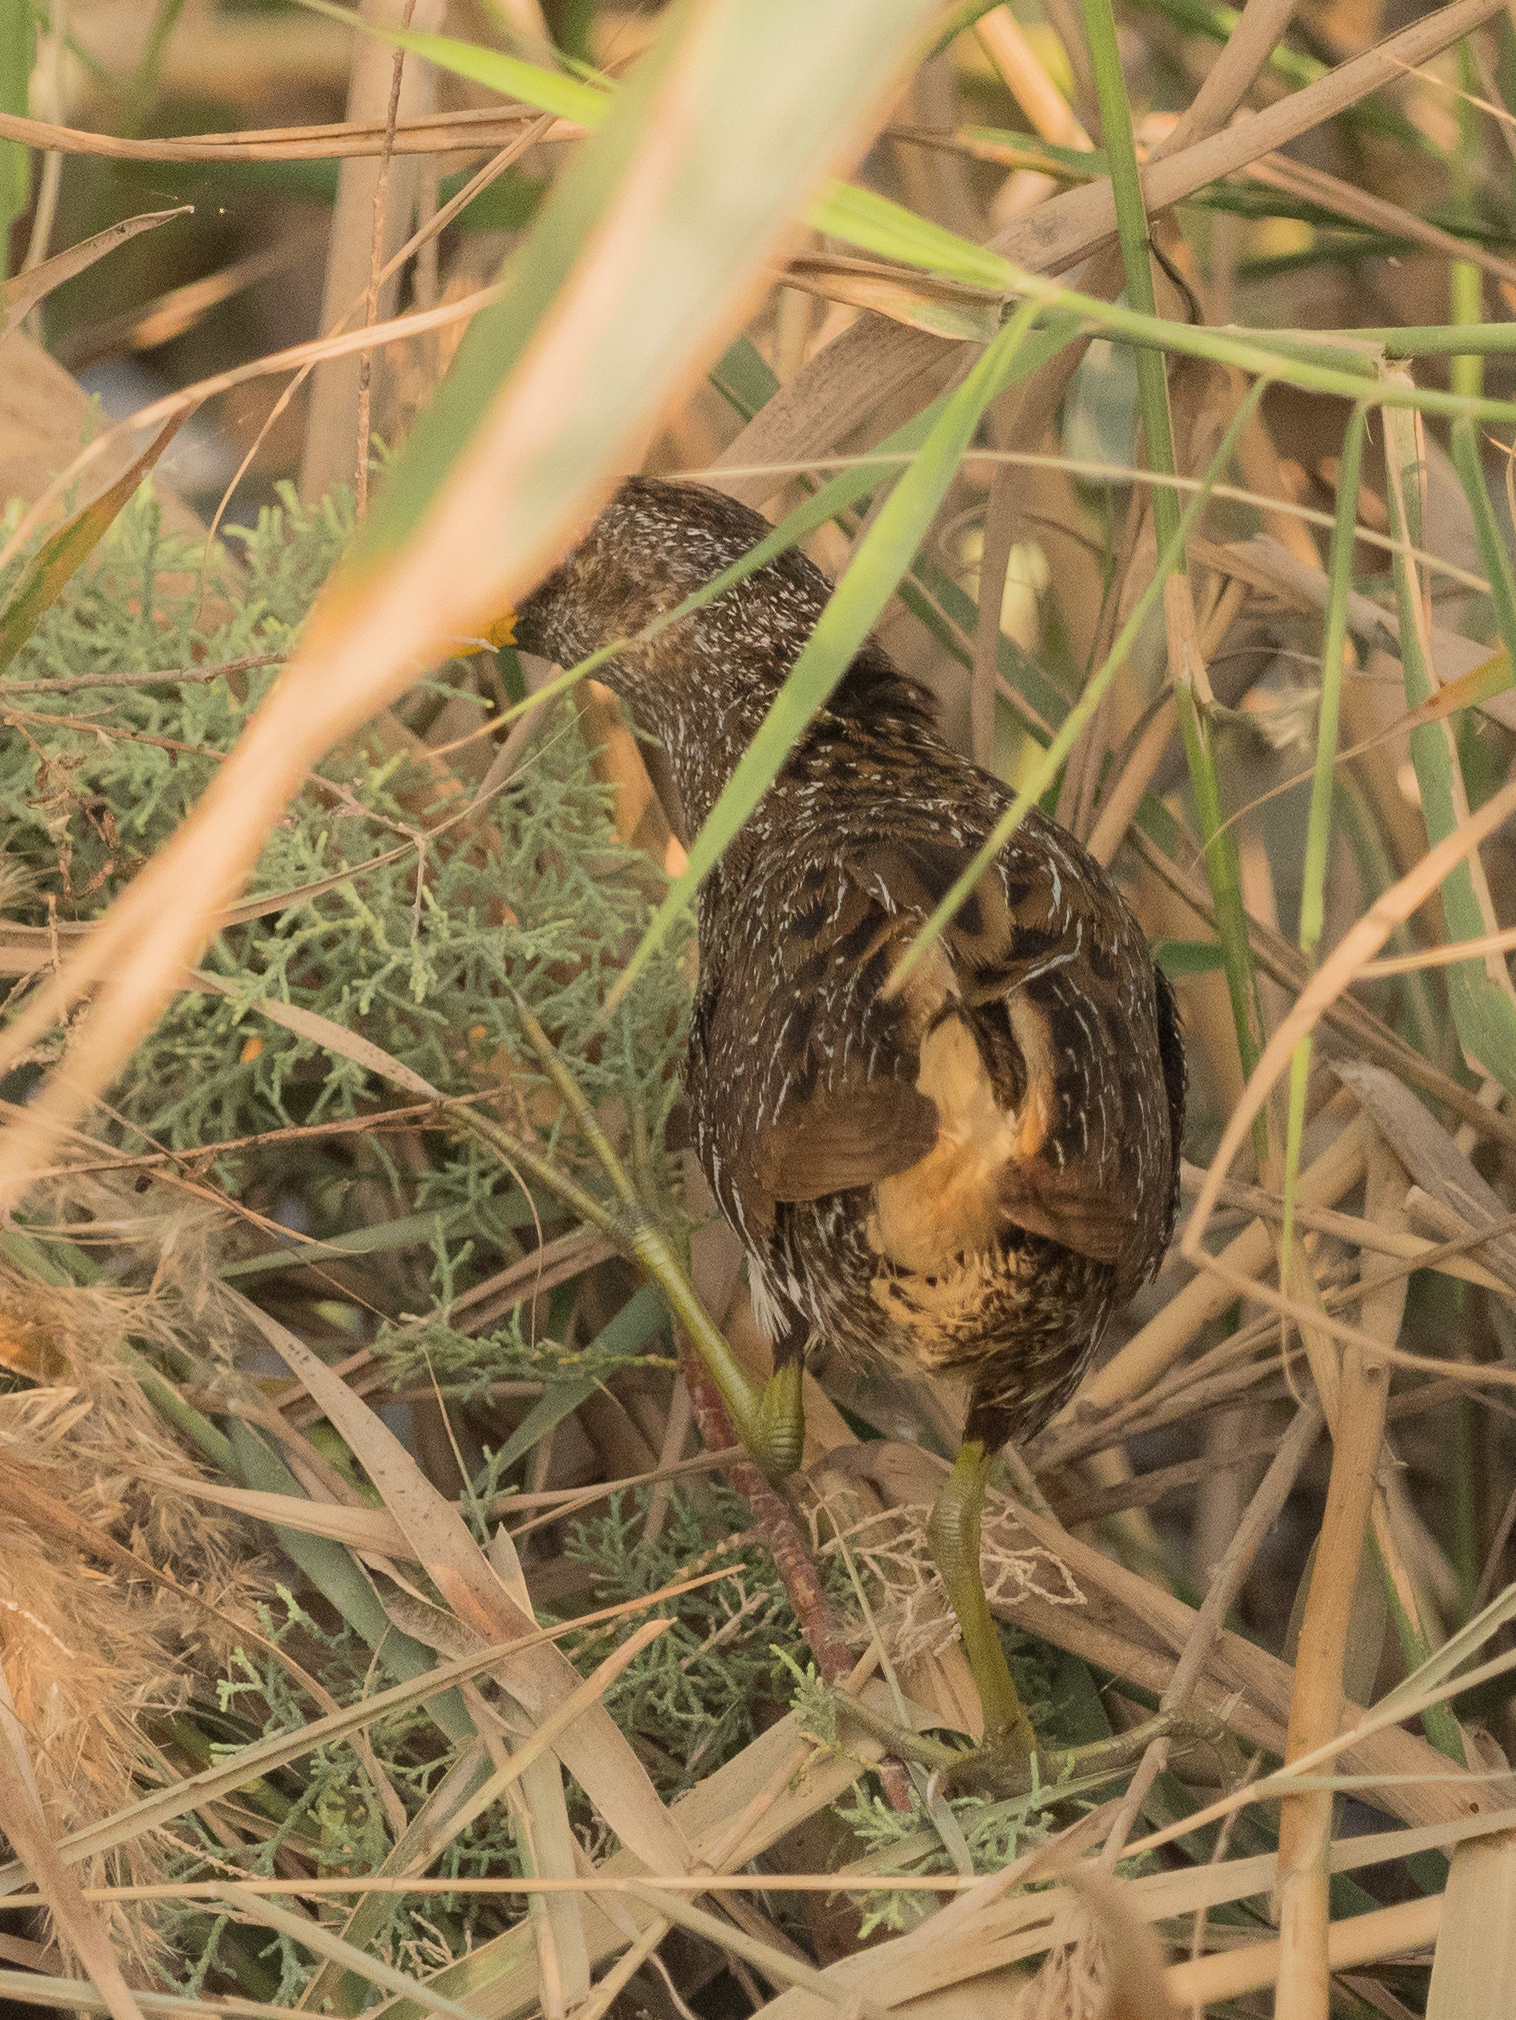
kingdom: Animalia
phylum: Chordata
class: Aves
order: Gruiformes
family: Rallidae
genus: Porzana
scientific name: Porzana porzana
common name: Spotted crake
